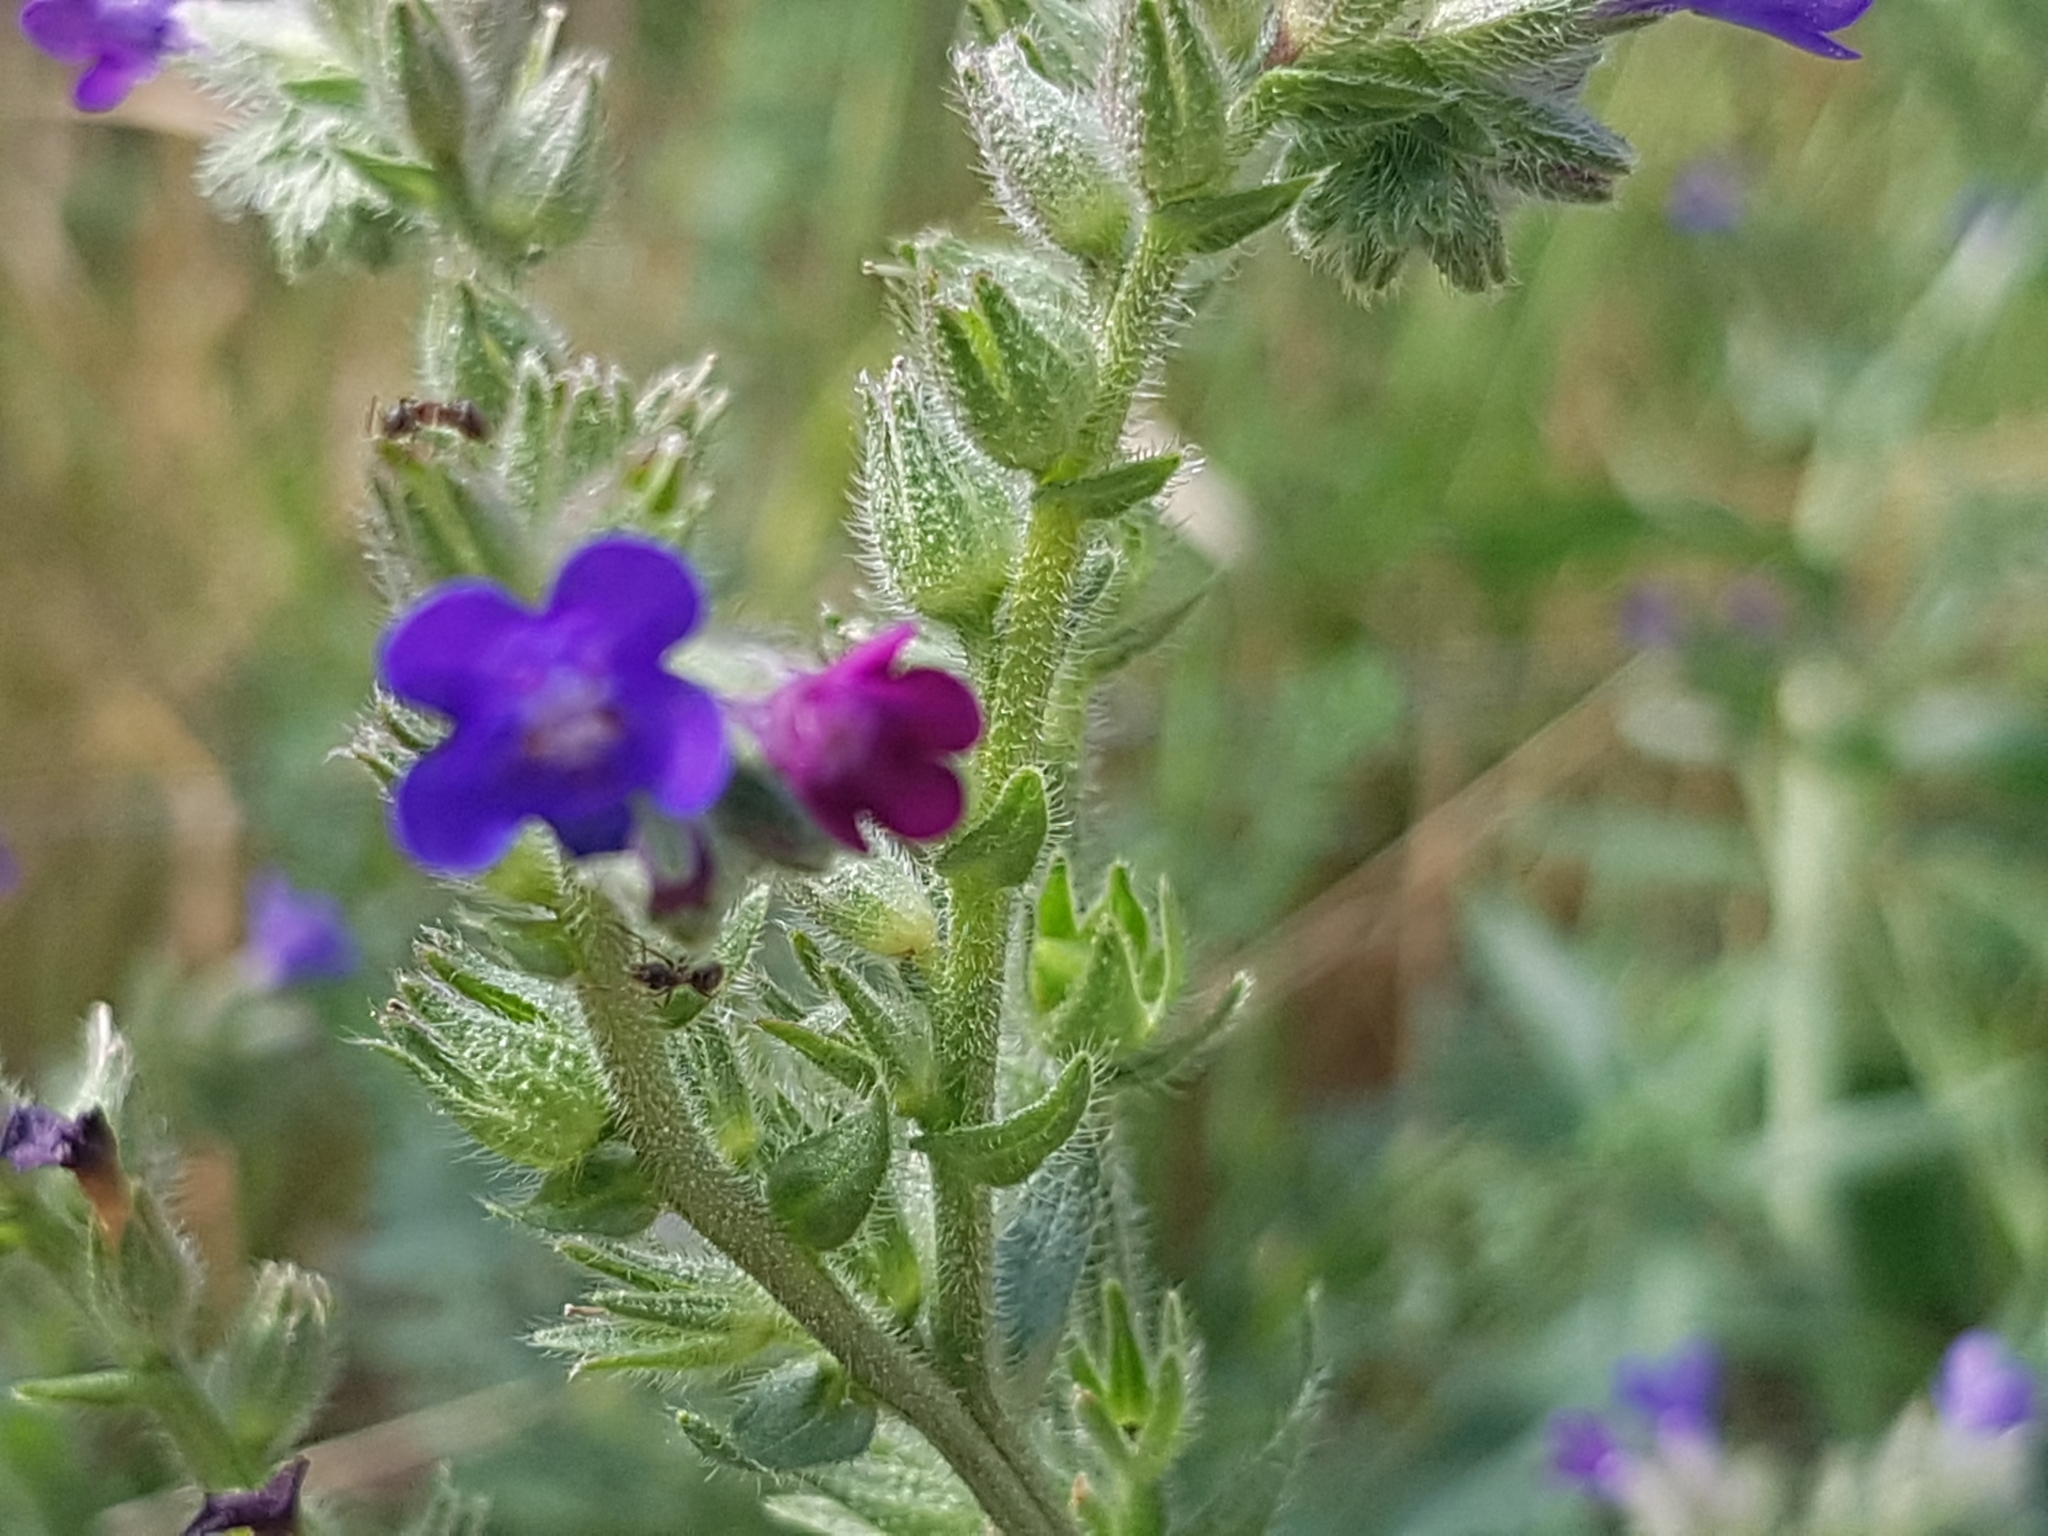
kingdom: Plantae
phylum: Tracheophyta
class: Magnoliopsida
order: Boraginales
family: Boraginaceae
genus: Anchusa
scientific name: Anchusa officinalis
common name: Alkanet
